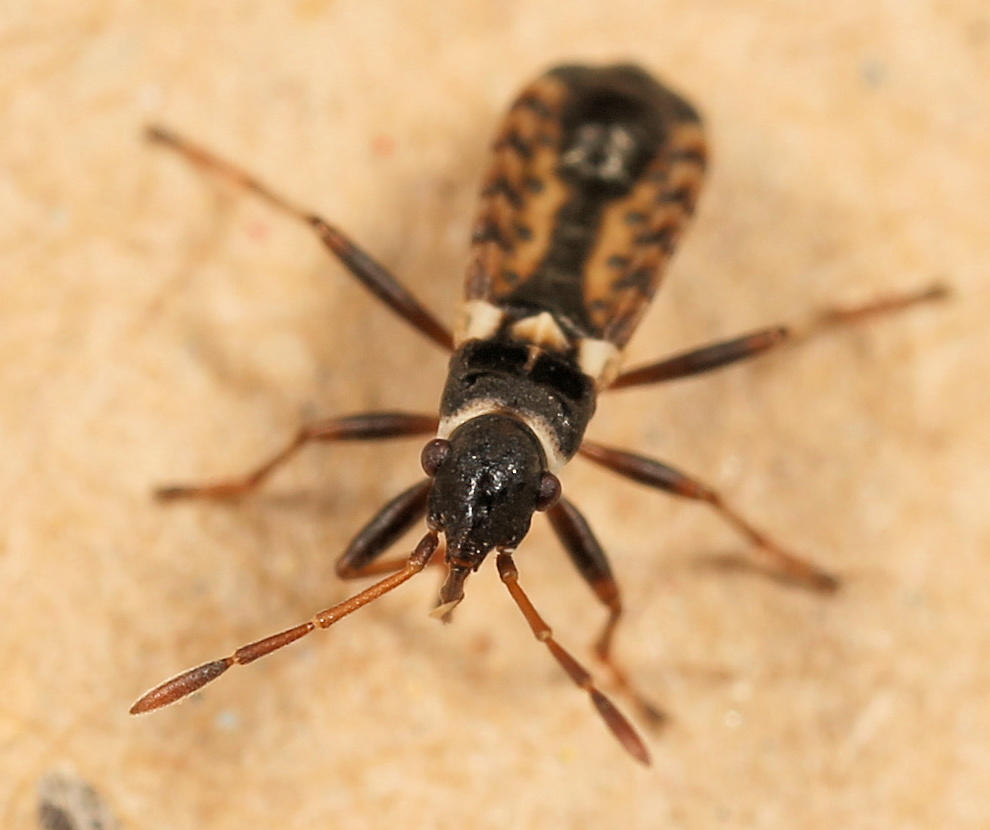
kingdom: Animalia
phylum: Arthropoda
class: Insecta
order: Hemiptera
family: Lygaeidae
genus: Stenaptula
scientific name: Stenaptula angusticollis
